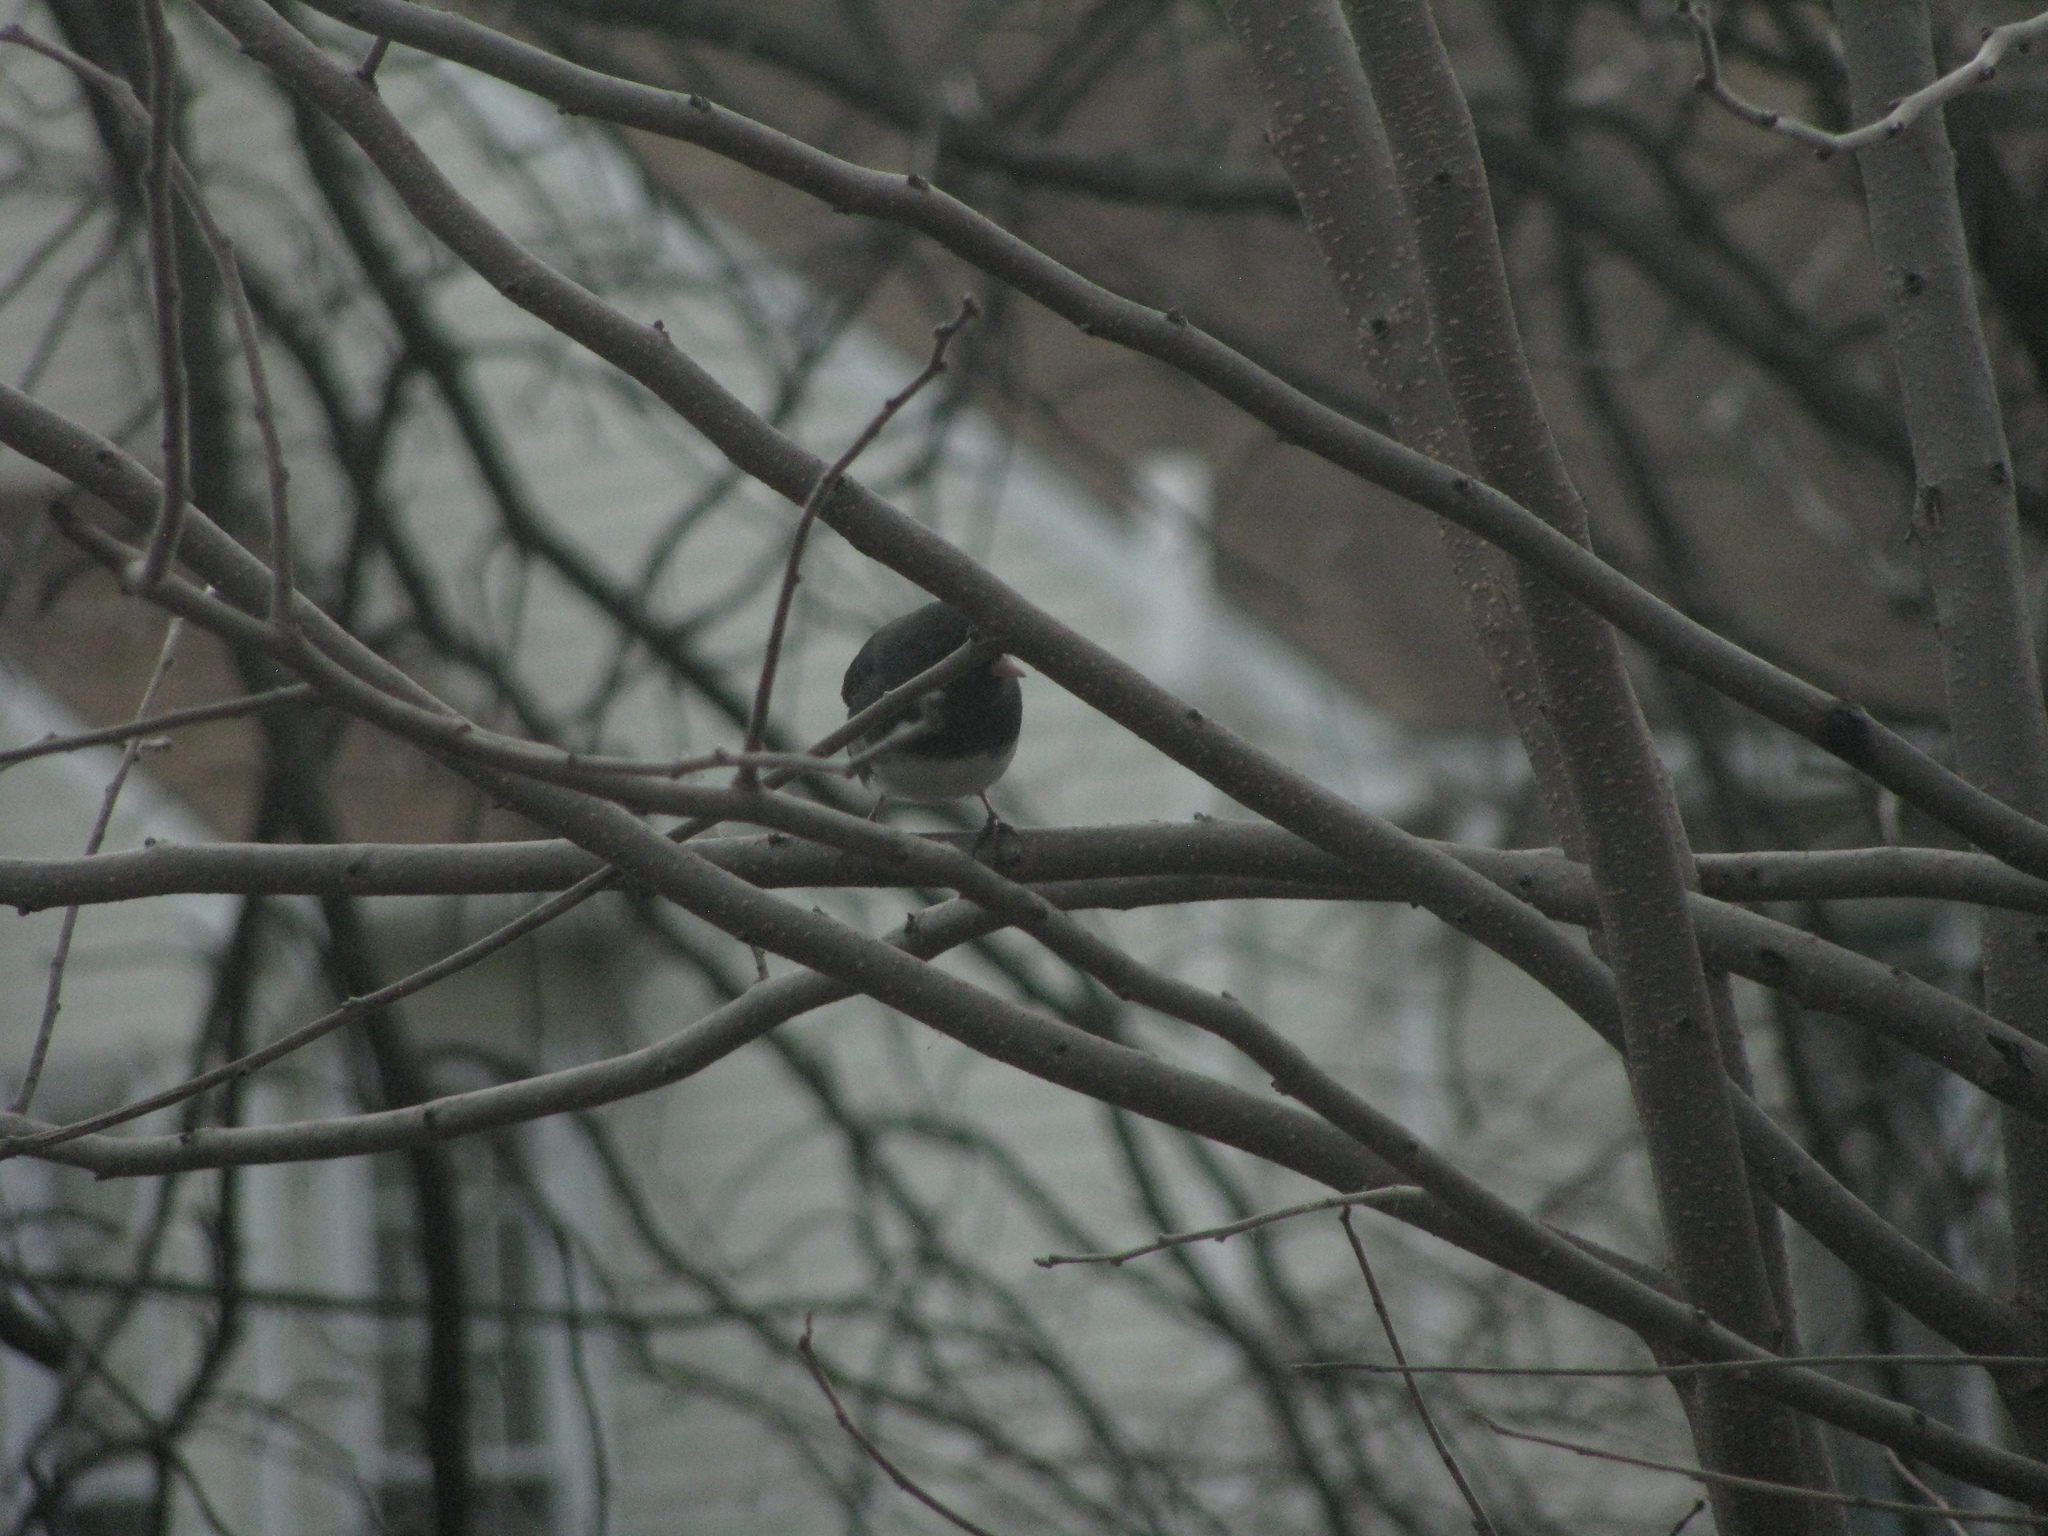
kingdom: Animalia
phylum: Chordata
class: Aves
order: Passeriformes
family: Passerellidae
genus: Junco
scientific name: Junco hyemalis
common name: Dark-eyed junco
